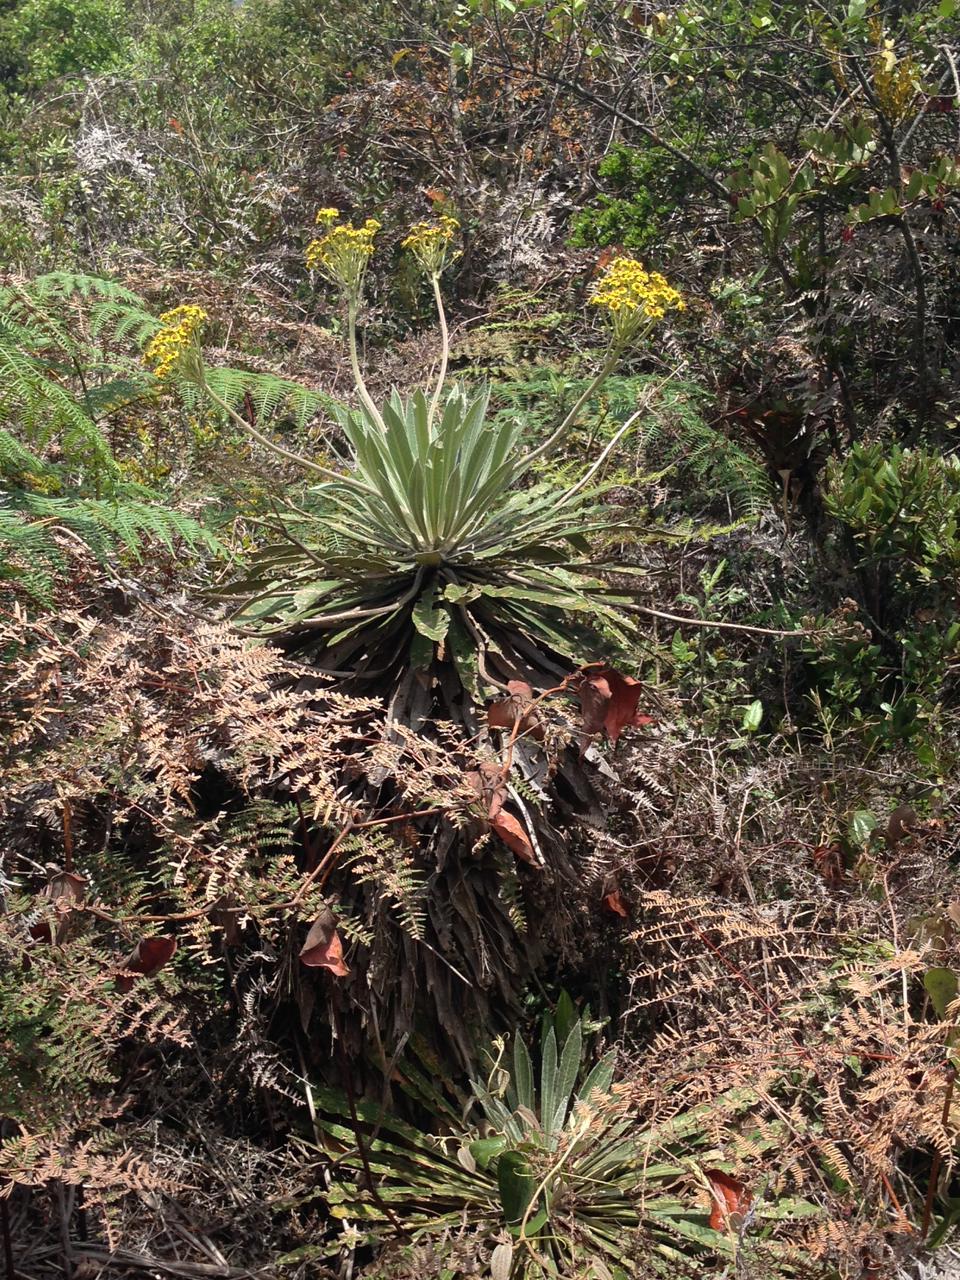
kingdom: Plantae
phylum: Tracheophyta
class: Magnoliopsida
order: Asterales
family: Asteraceae
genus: Espeletia
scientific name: Espeletia corymbosa
